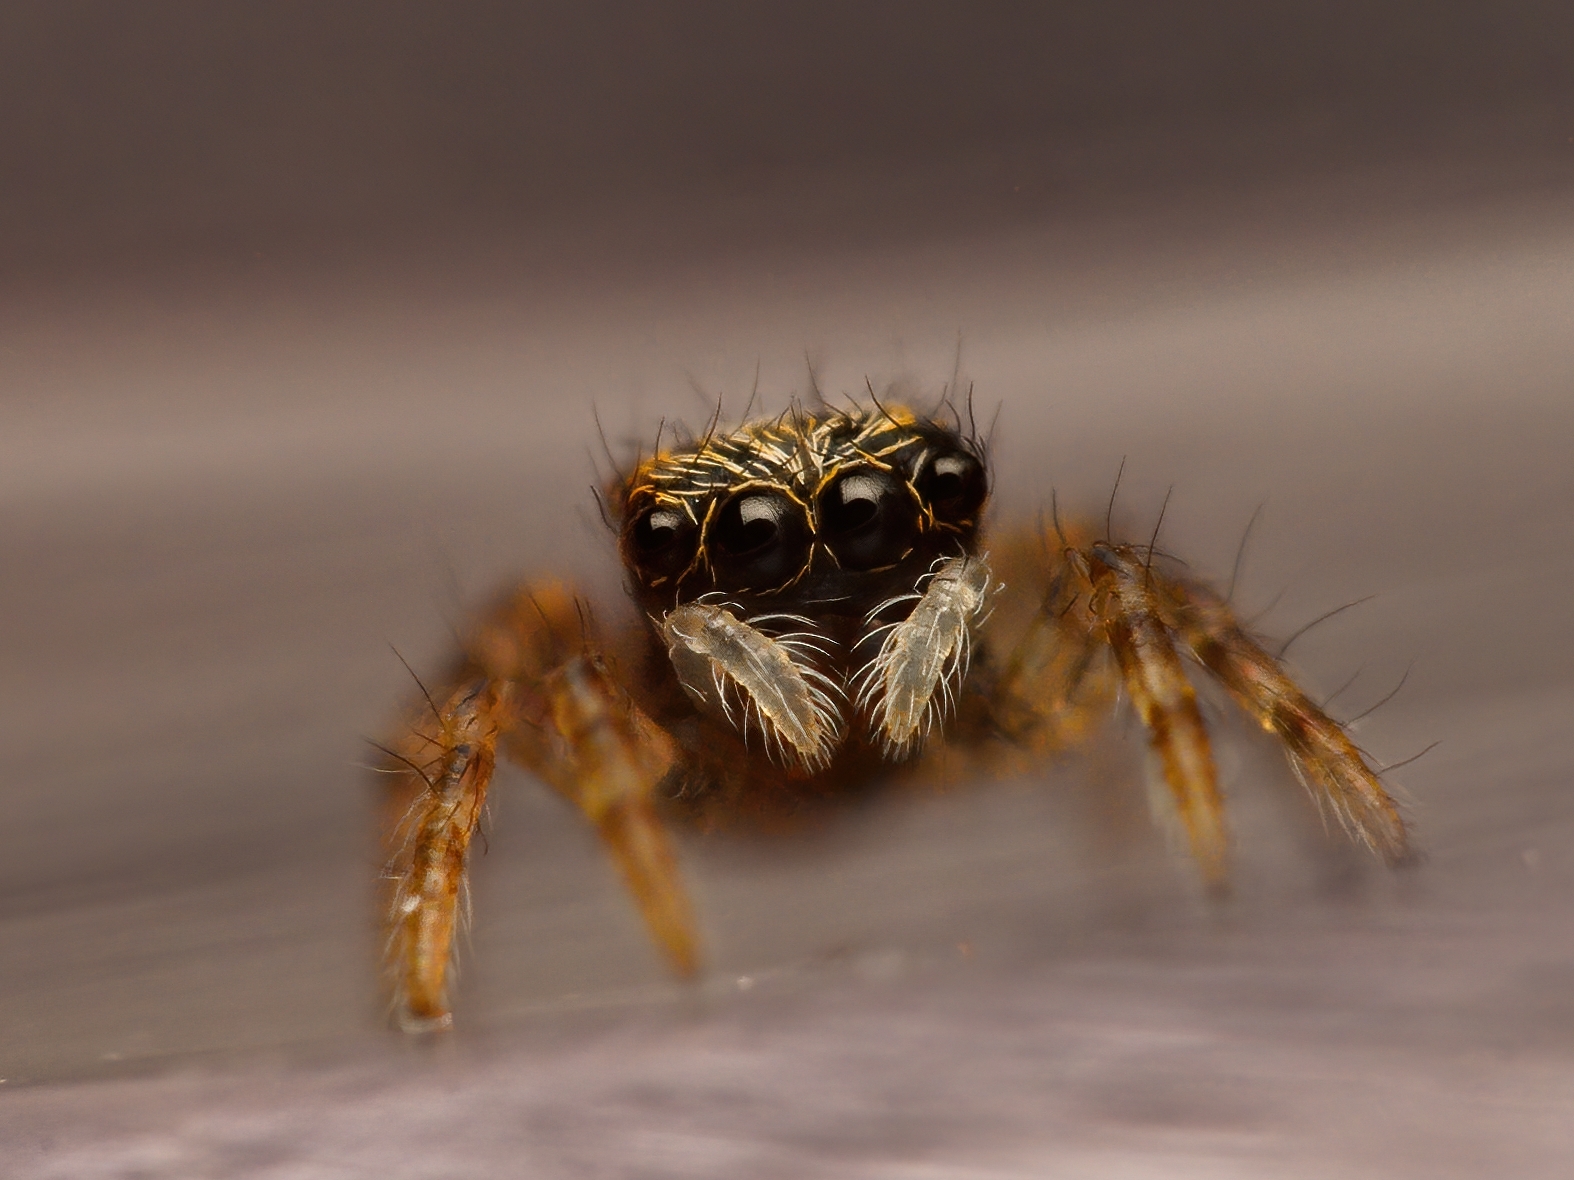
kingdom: Animalia
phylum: Arthropoda
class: Arachnida
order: Araneae
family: Salticidae
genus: Pseudeuophrys
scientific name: Pseudeuophrys lanigera
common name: Jumping spider
